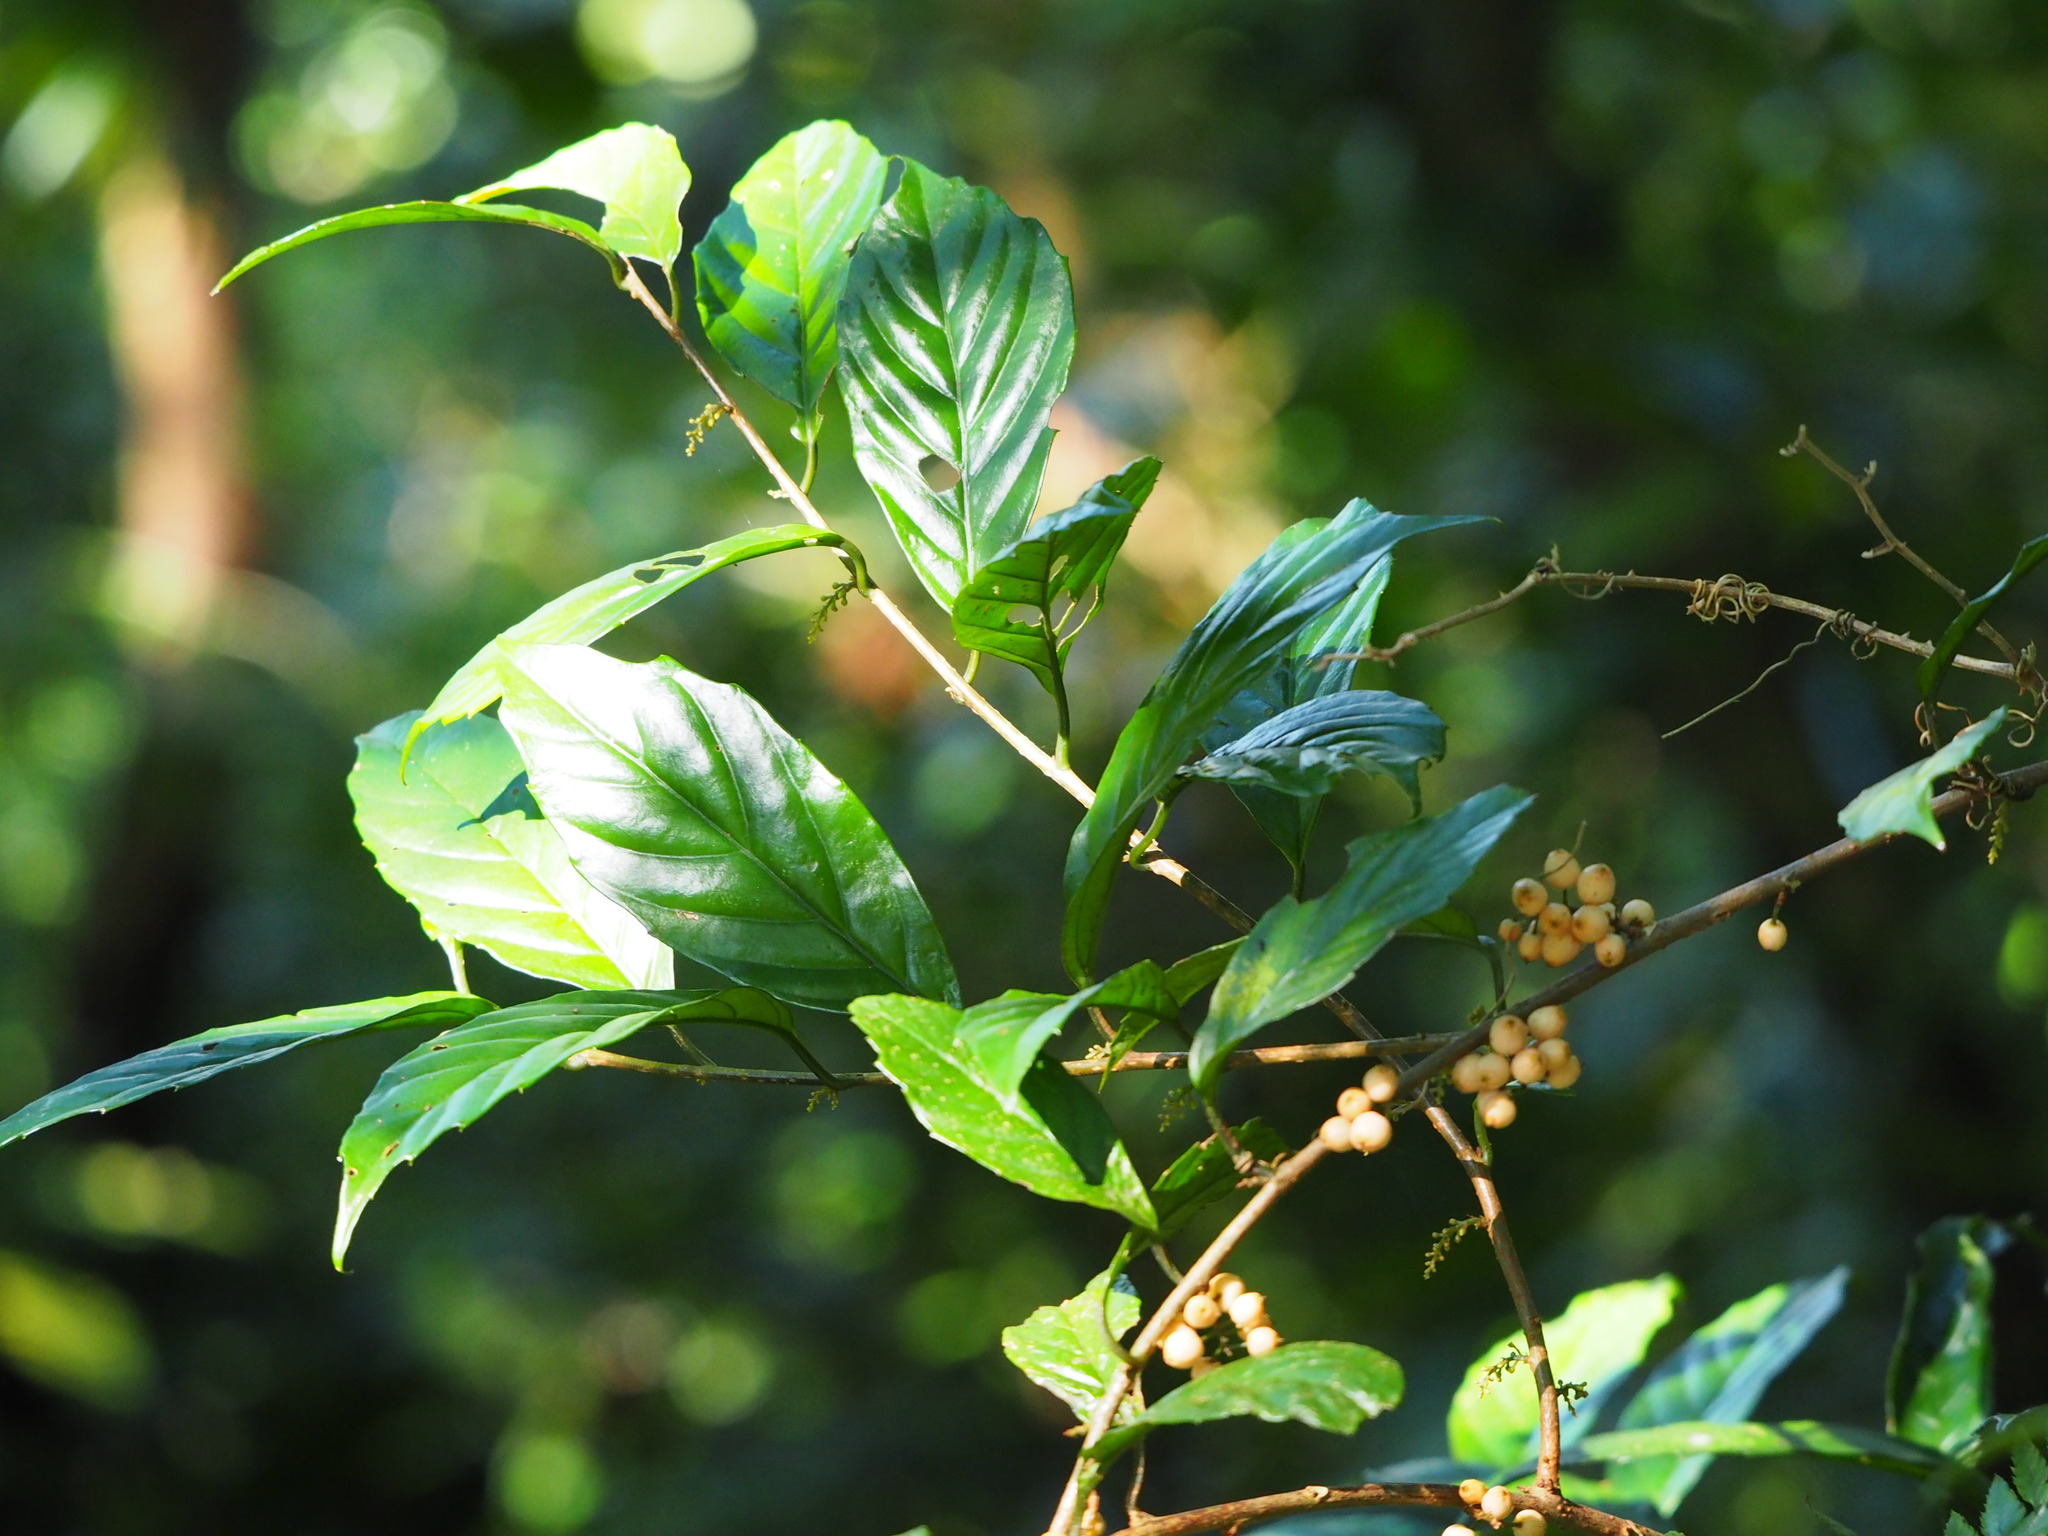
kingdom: Plantae
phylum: Tracheophyta
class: Magnoliopsida
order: Ericales
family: Primulaceae
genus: Maesa
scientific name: Maesa japonica
